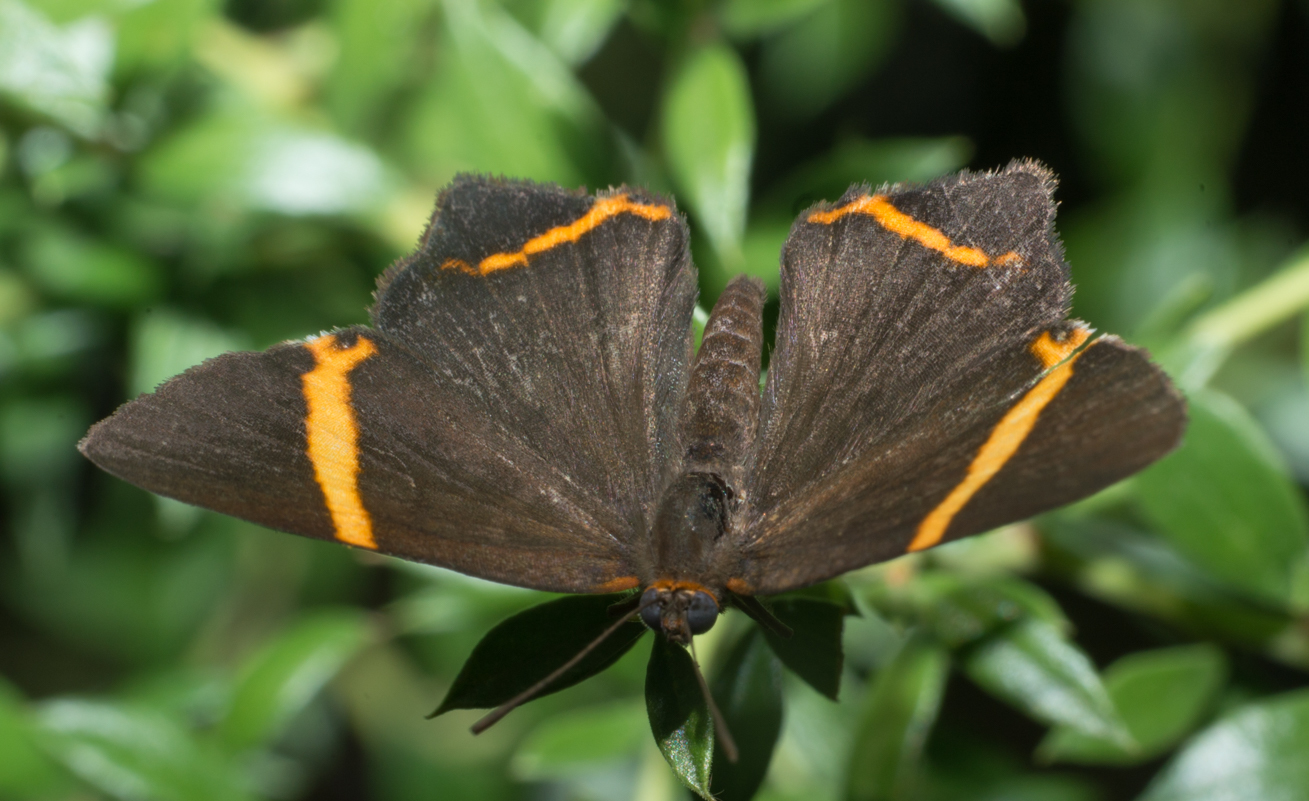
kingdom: Animalia
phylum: Arthropoda
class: Insecta
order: Lepidoptera
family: Riodinidae
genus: Riodina
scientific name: Riodina lysippoides
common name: Little dancer metalmark
